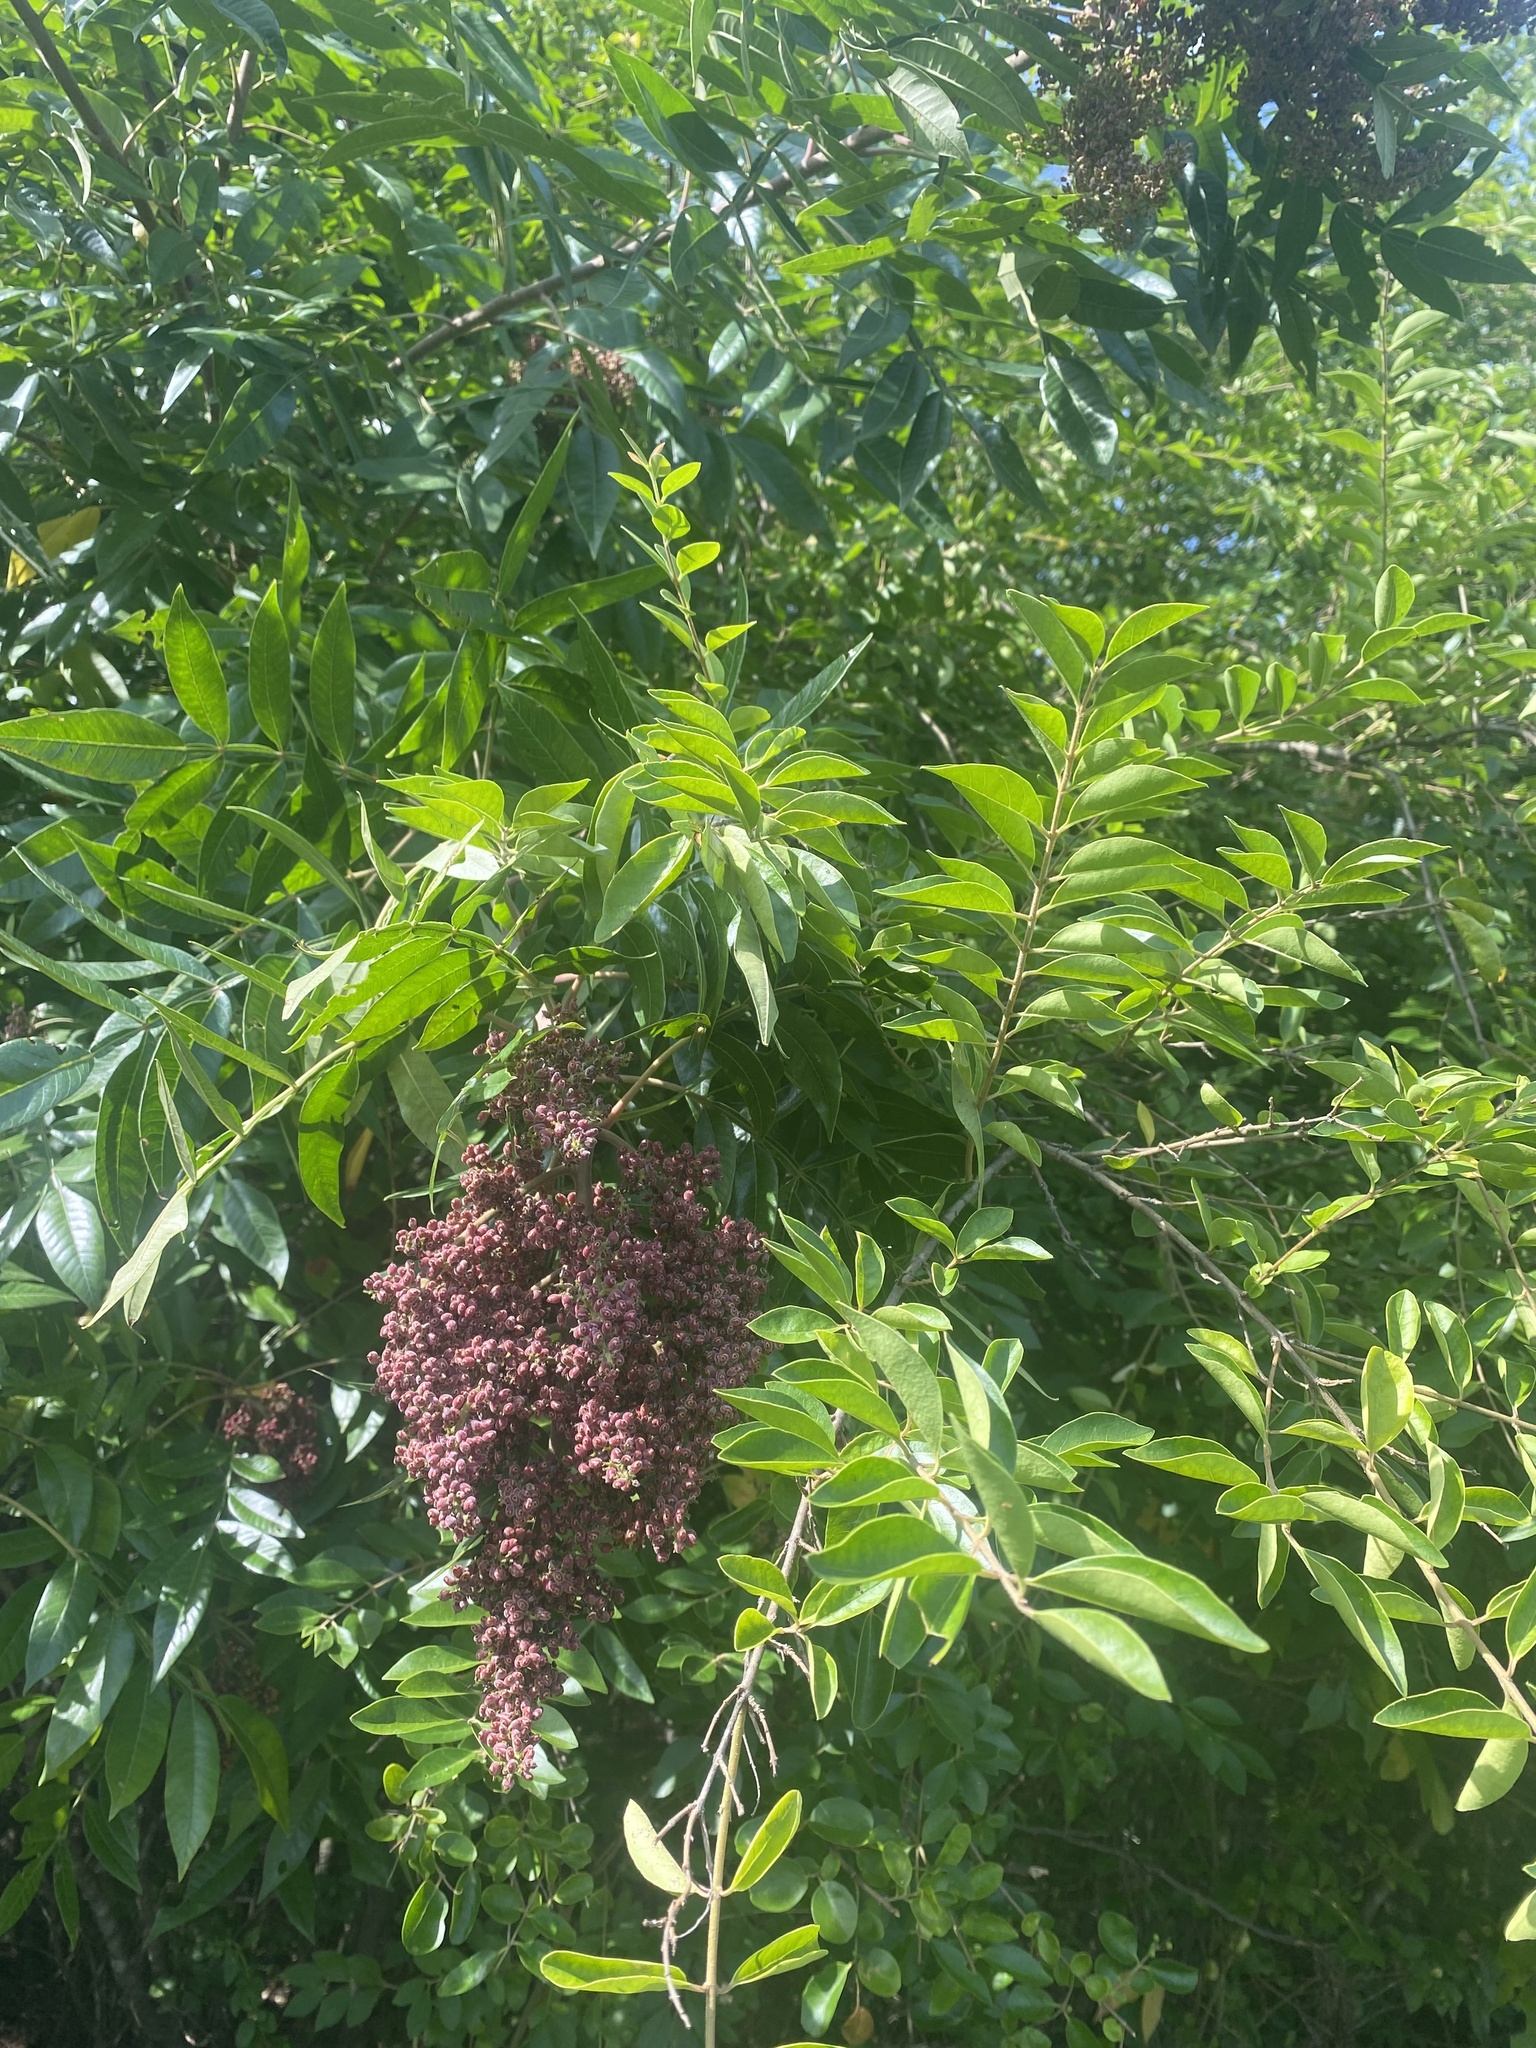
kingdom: Plantae
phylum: Tracheophyta
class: Magnoliopsida
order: Sapindales
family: Anacardiaceae
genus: Rhus
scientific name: Rhus copallina
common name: Shining sumac
